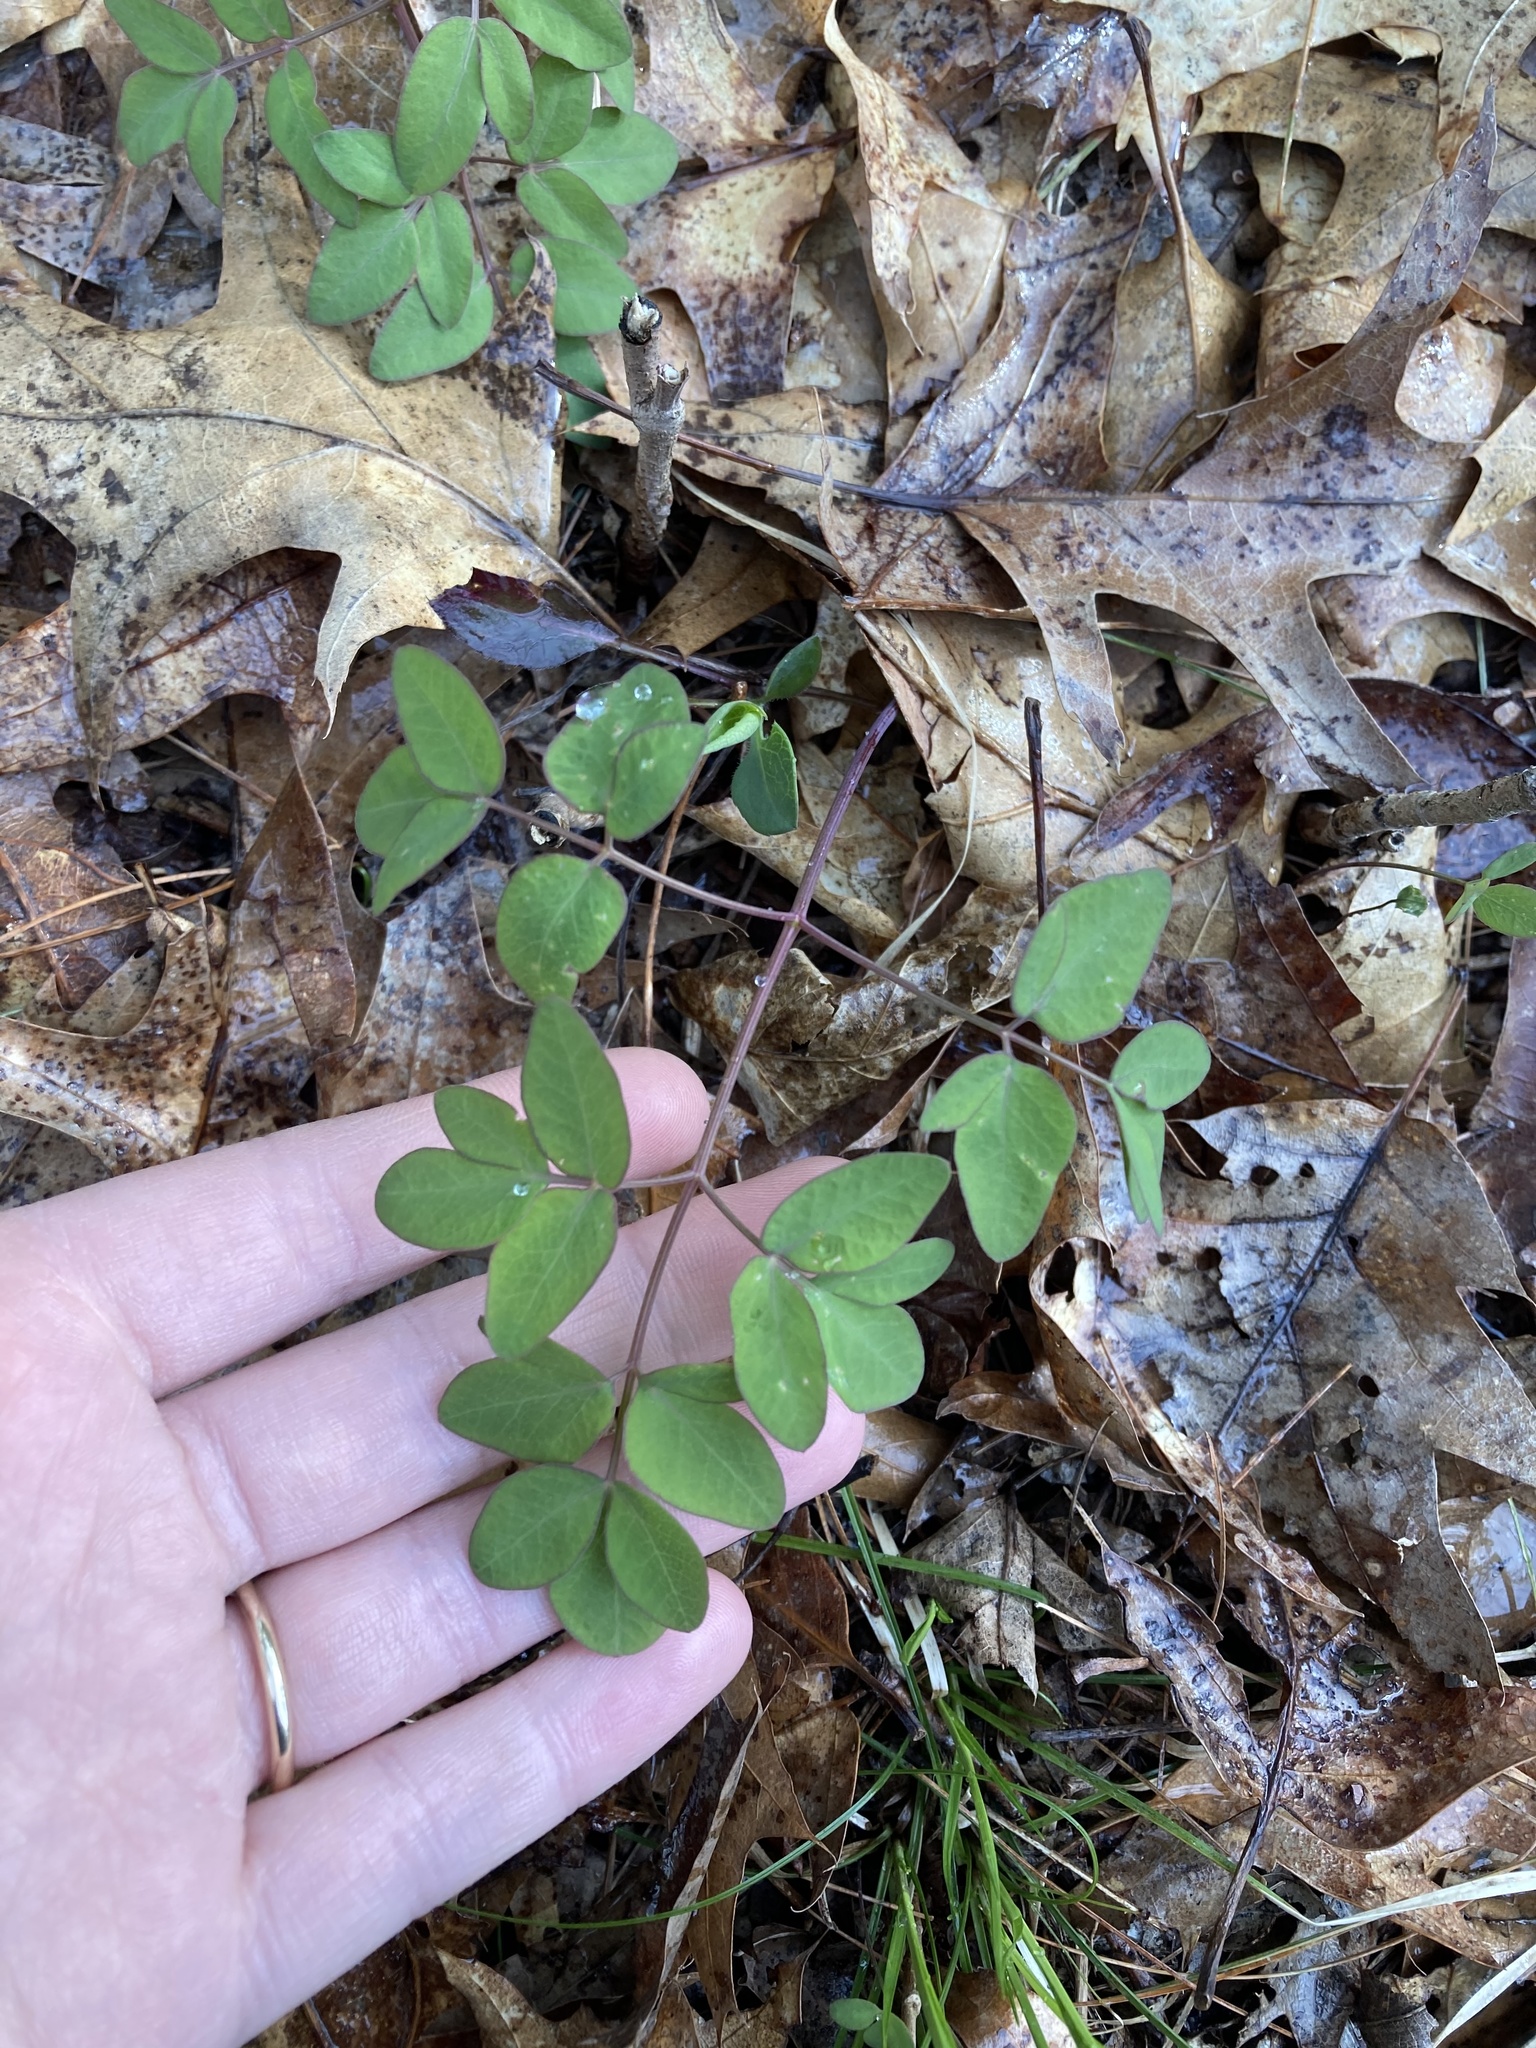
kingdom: Plantae
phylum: Tracheophyta
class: Magnoliopsida
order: Apiales
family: Apiaceae
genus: Taenidia
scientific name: Taenidia integerrima
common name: Golden alexander
